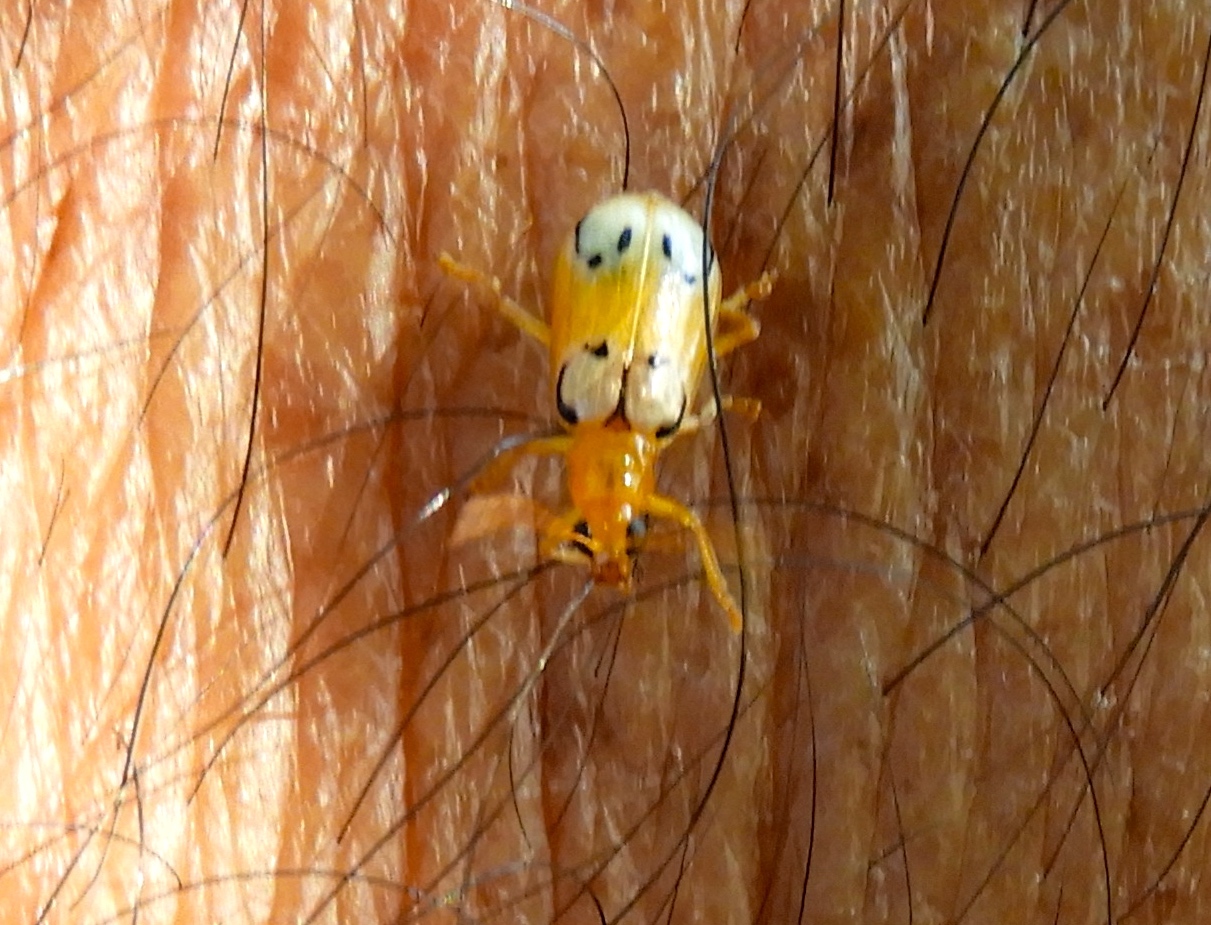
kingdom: Animalia
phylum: Arthropoda
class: Insecta
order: Coleoptera
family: Chrysomelidae
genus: Diabrotica
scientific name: Diabrotica
